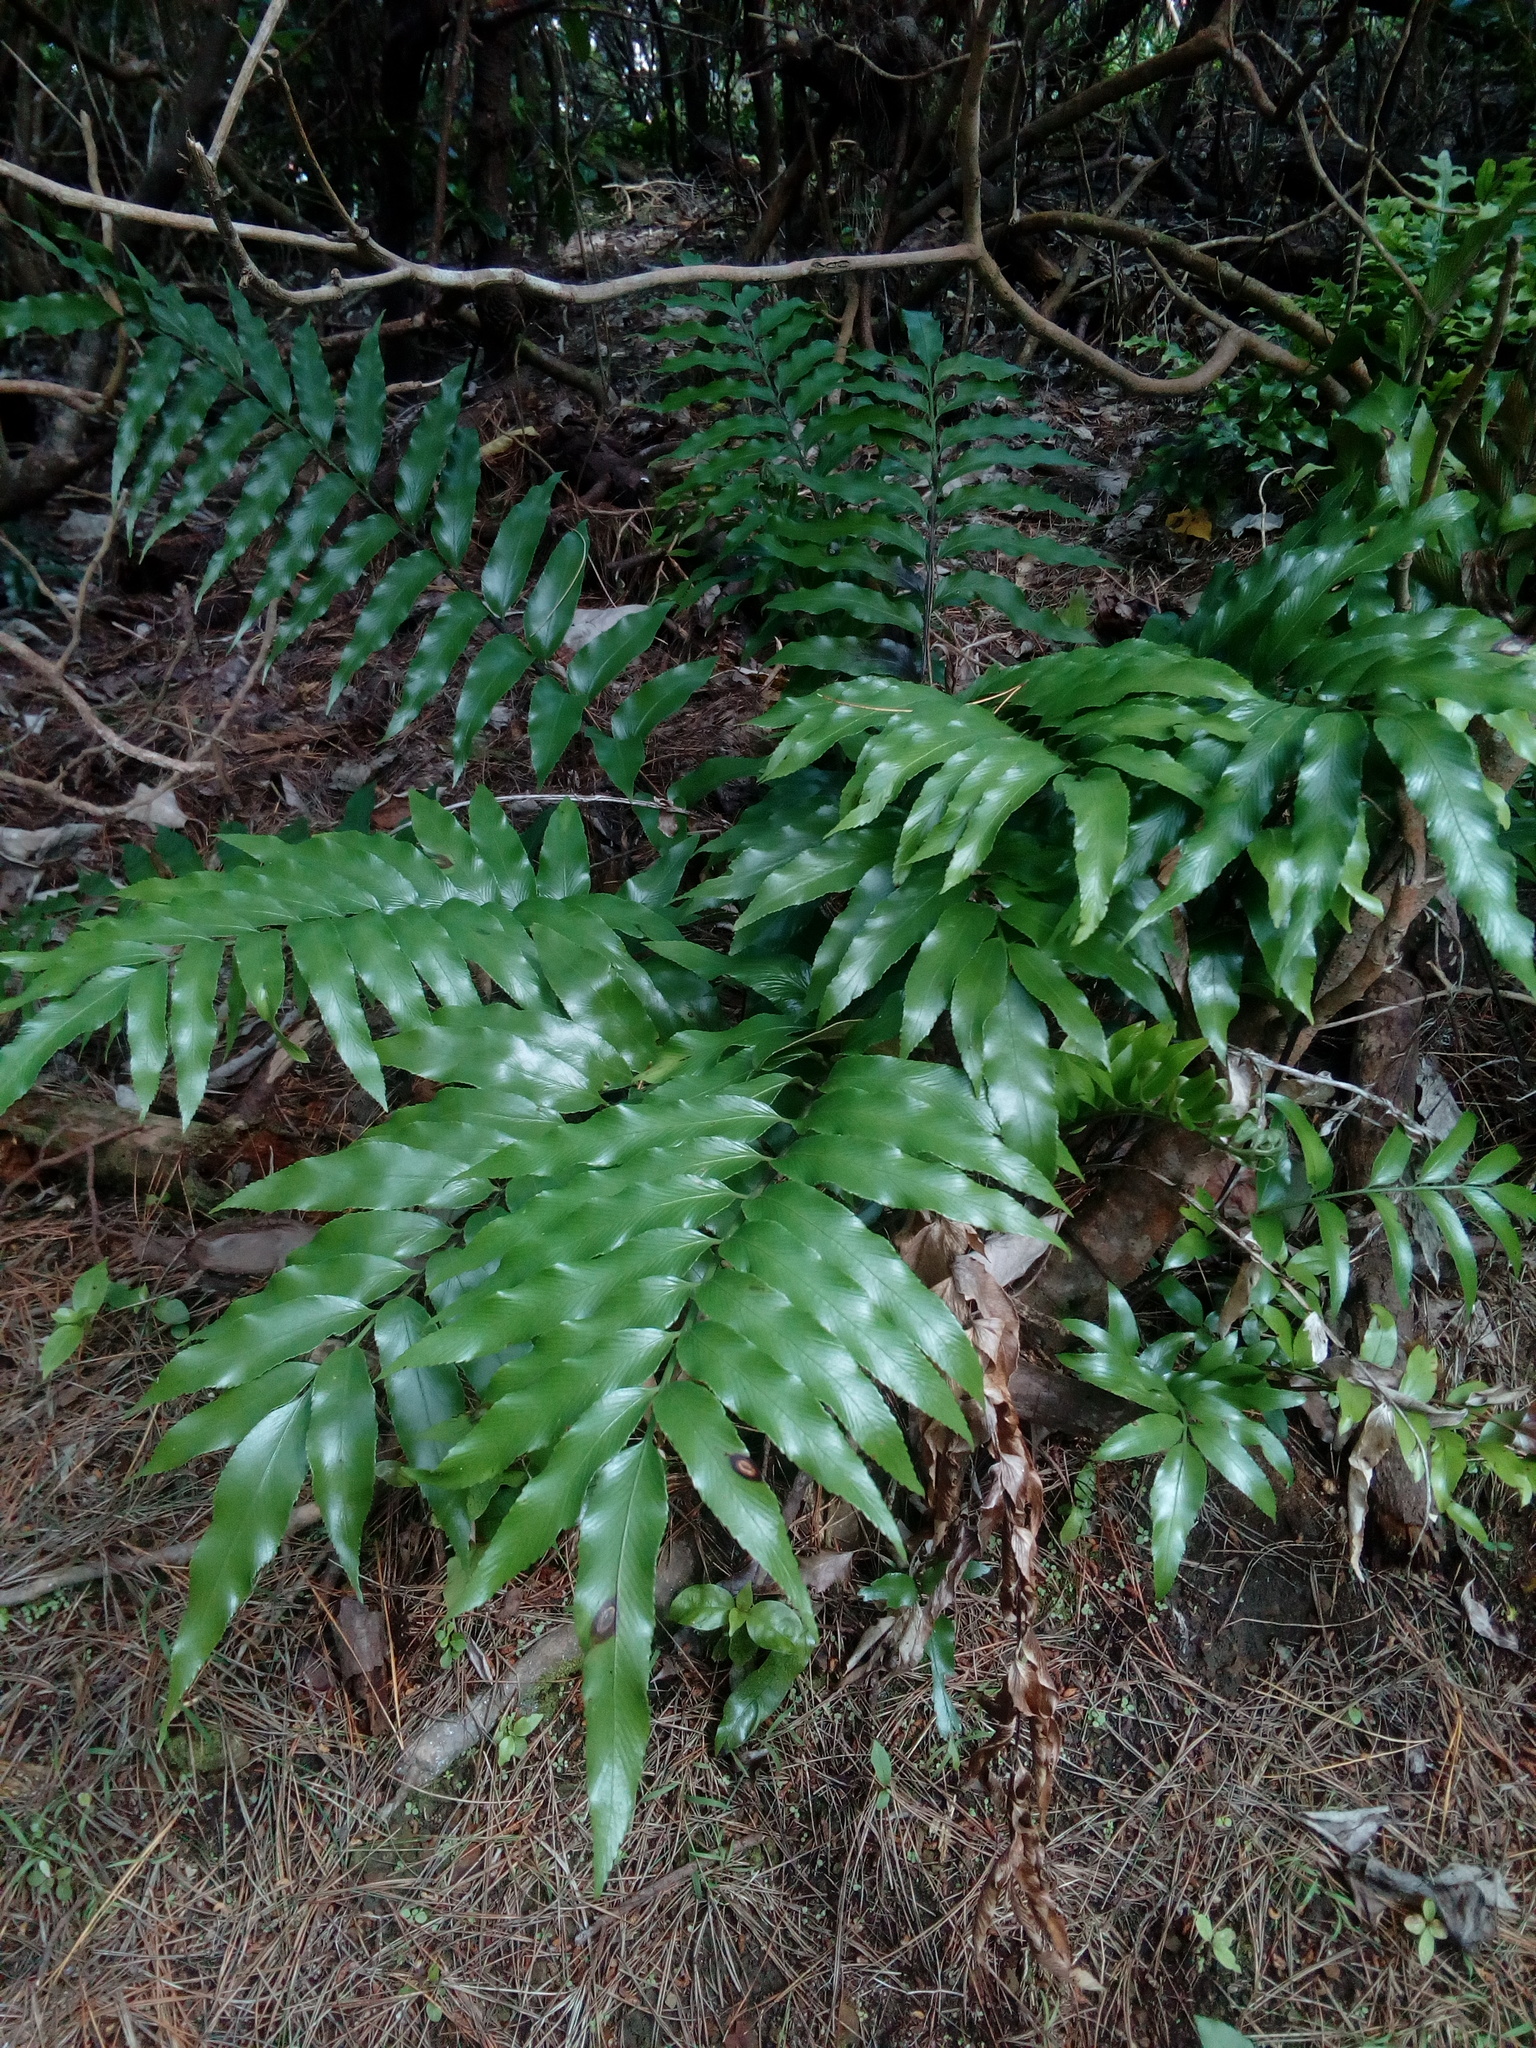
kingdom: Plantae
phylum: Tracheophyta
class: Polypodiopsida
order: Polypodiales
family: Aspleniaceae
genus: Asplenium
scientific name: Asplenium oblongifolium
